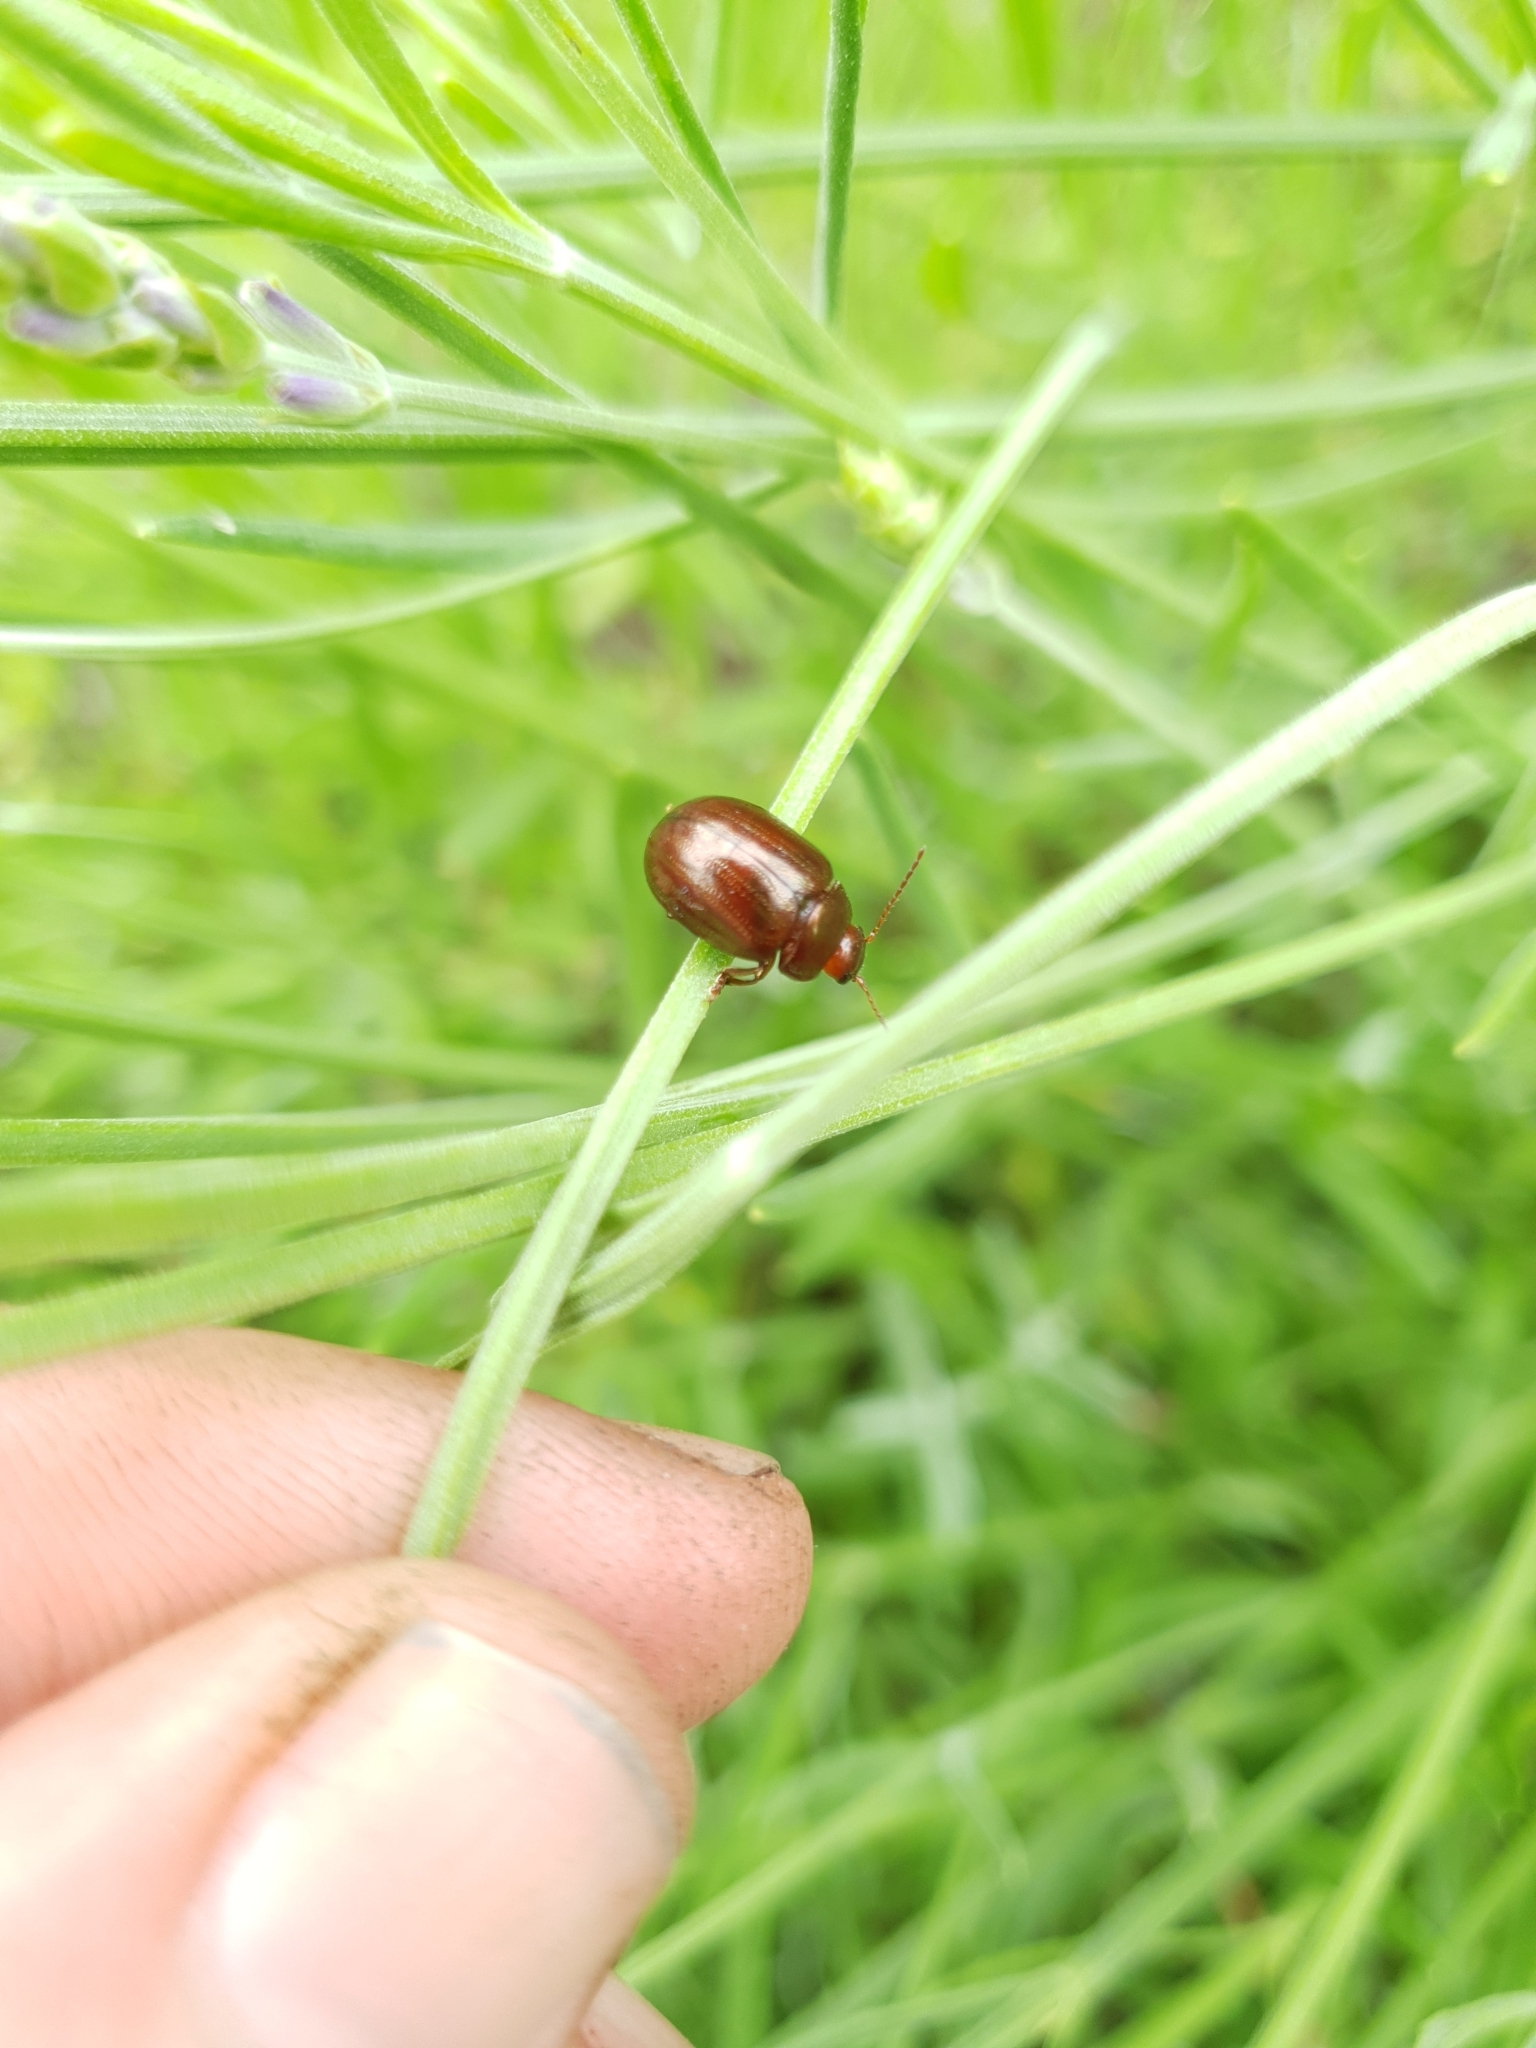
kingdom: Animalia
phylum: Arthropoda
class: Insecta
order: Coleoptera
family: Chrysomelidae
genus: Chrysolina
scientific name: Chrysolina americana
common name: Rosemary beetle
